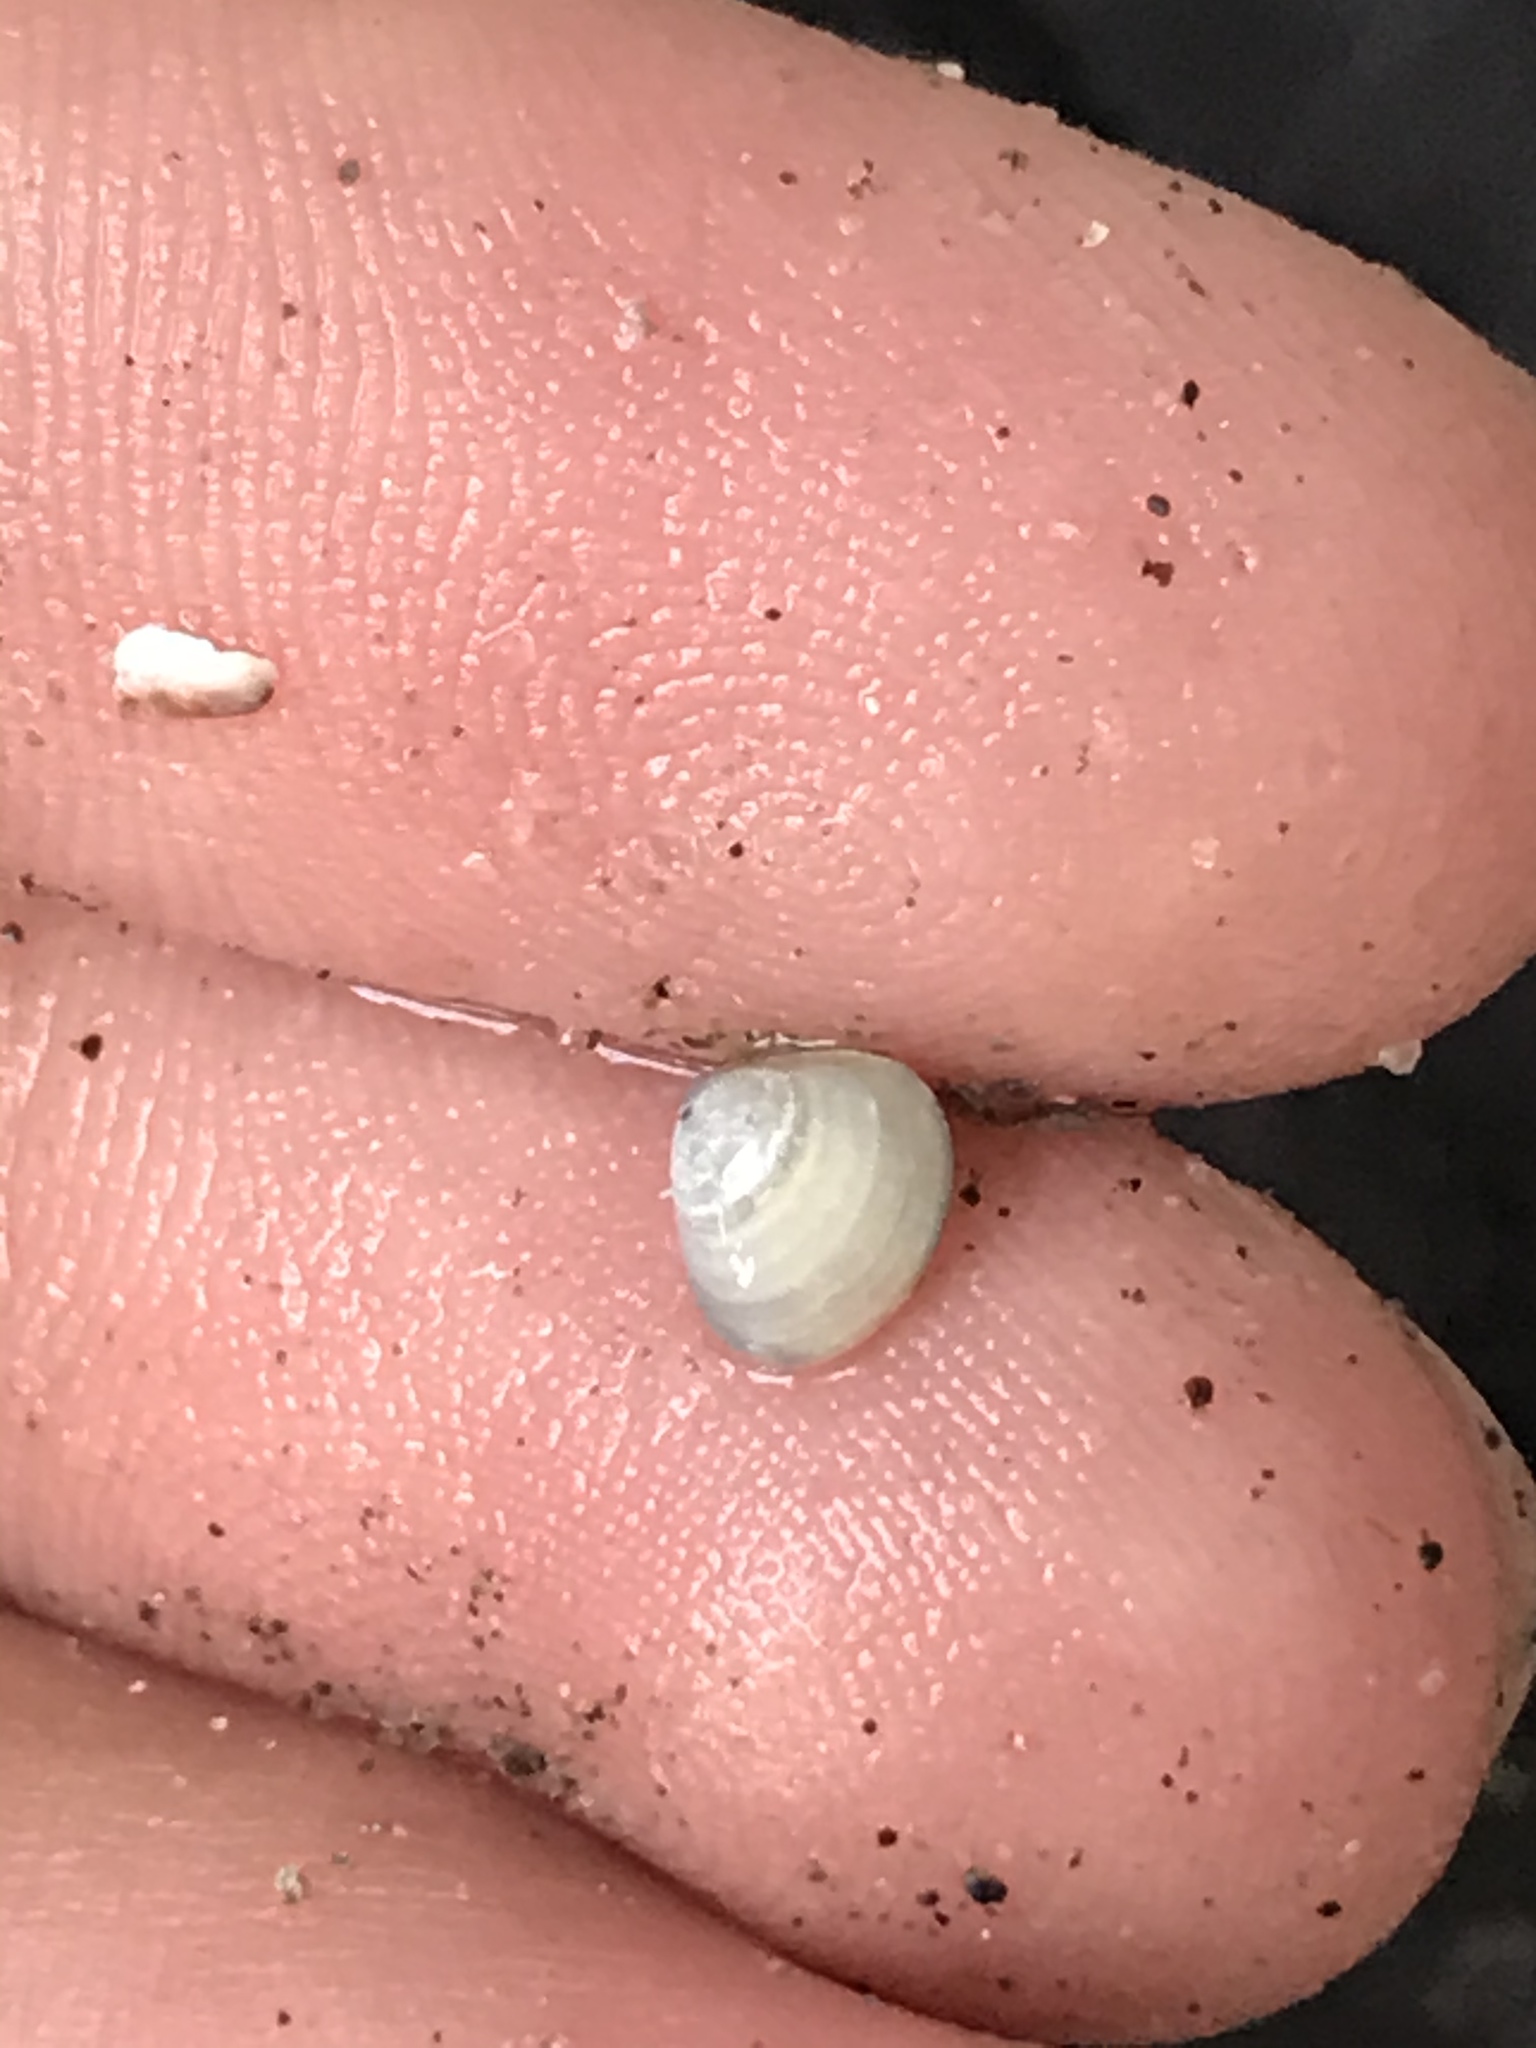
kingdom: Animalia
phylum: Mollusca
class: Bivalvia
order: Venerida
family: Veneridae
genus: Gemma
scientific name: Gemma gemma
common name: Amethyst gemclam
